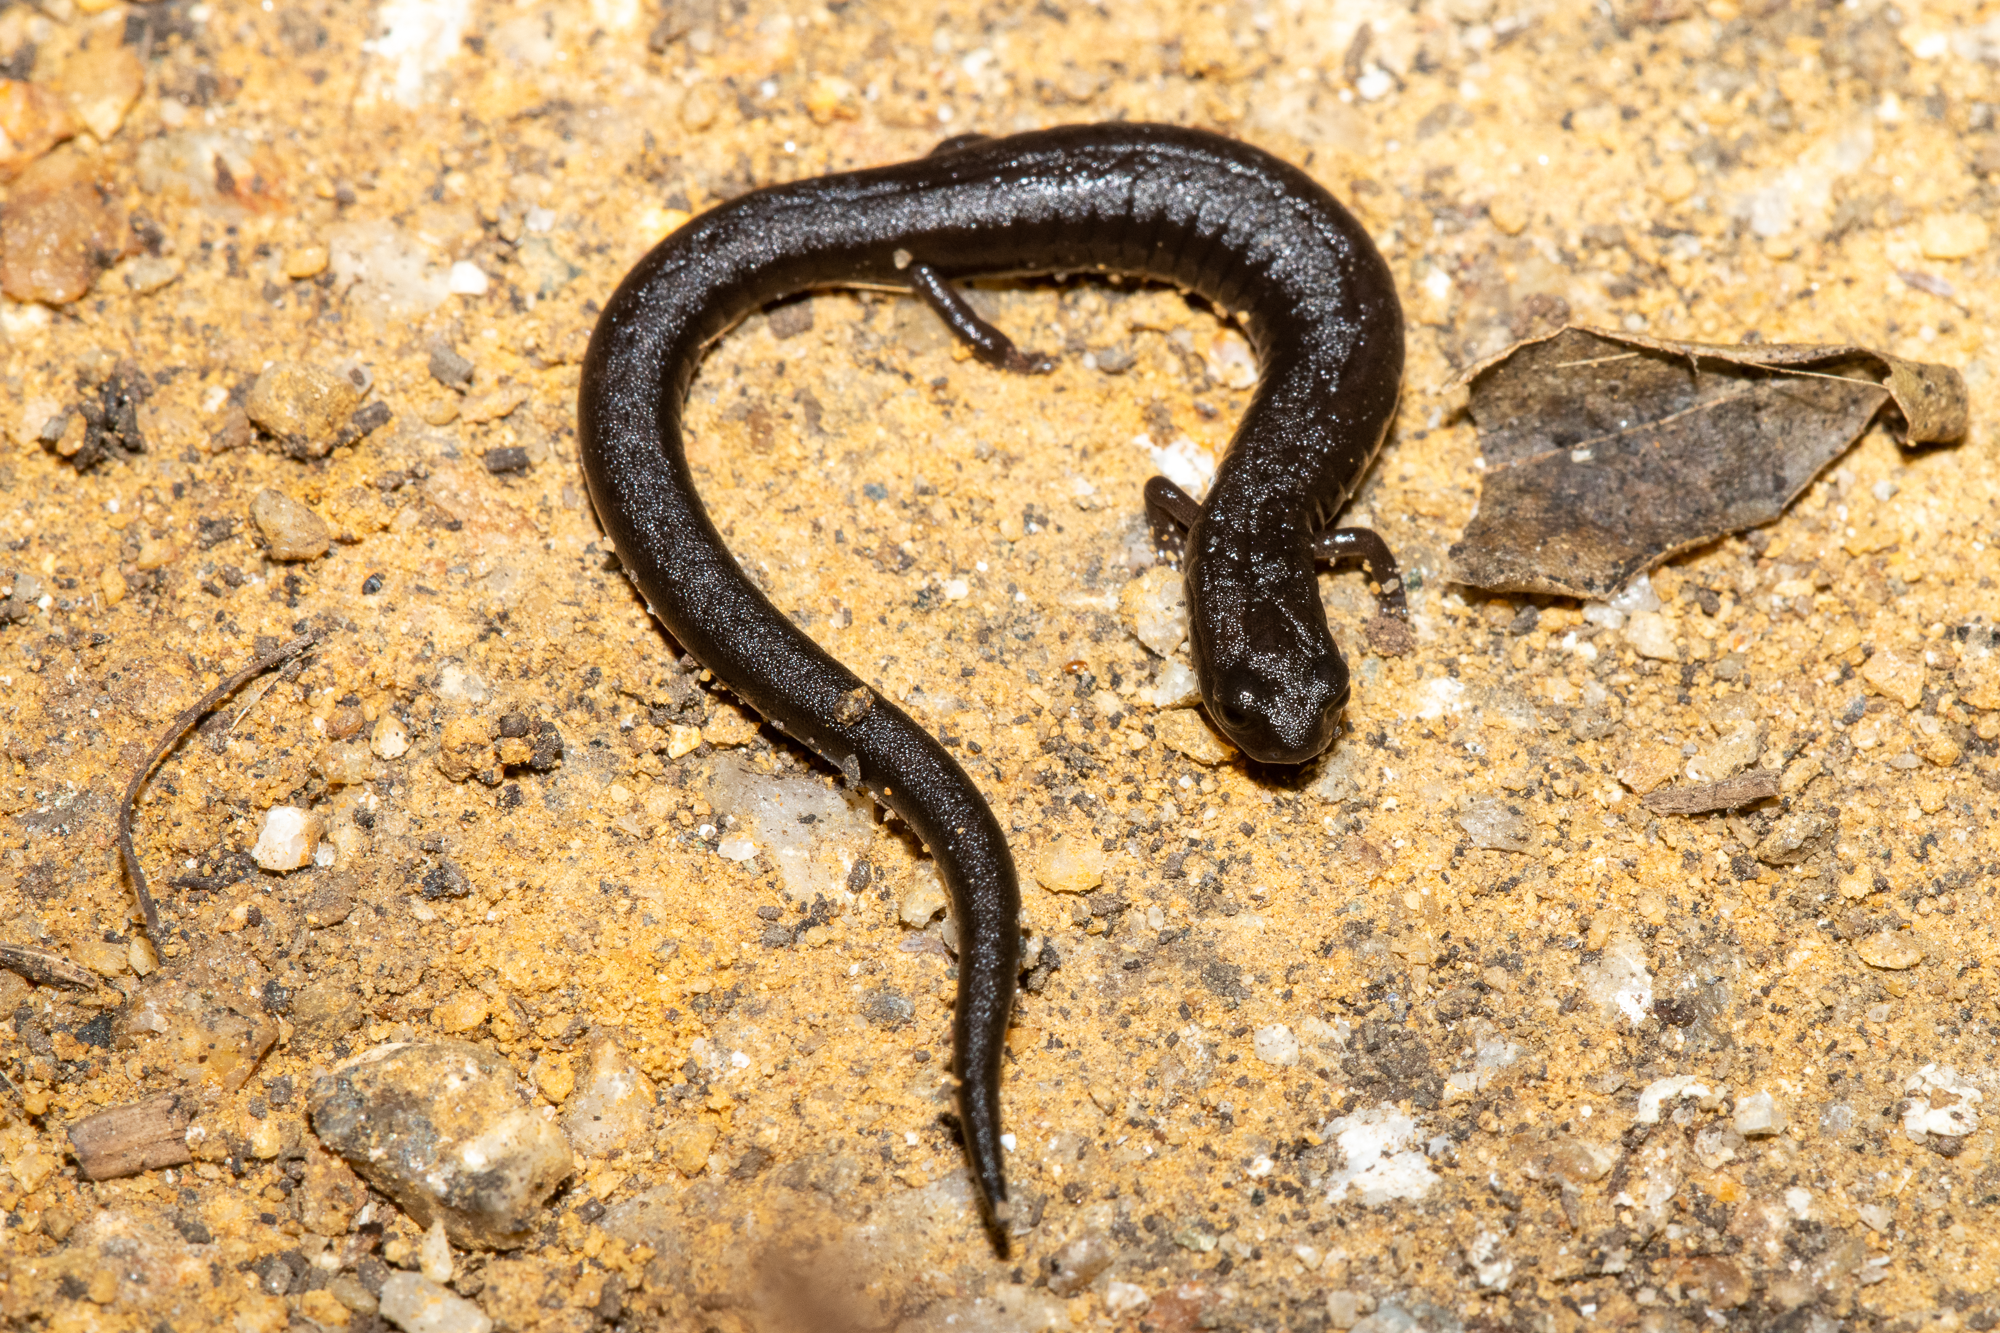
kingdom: Animalia
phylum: Chordata
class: Amphibia
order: Caudata
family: Plethodontidae
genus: Batrachoseps
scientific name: Batrachoseps attenuatus
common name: California slender salamander
